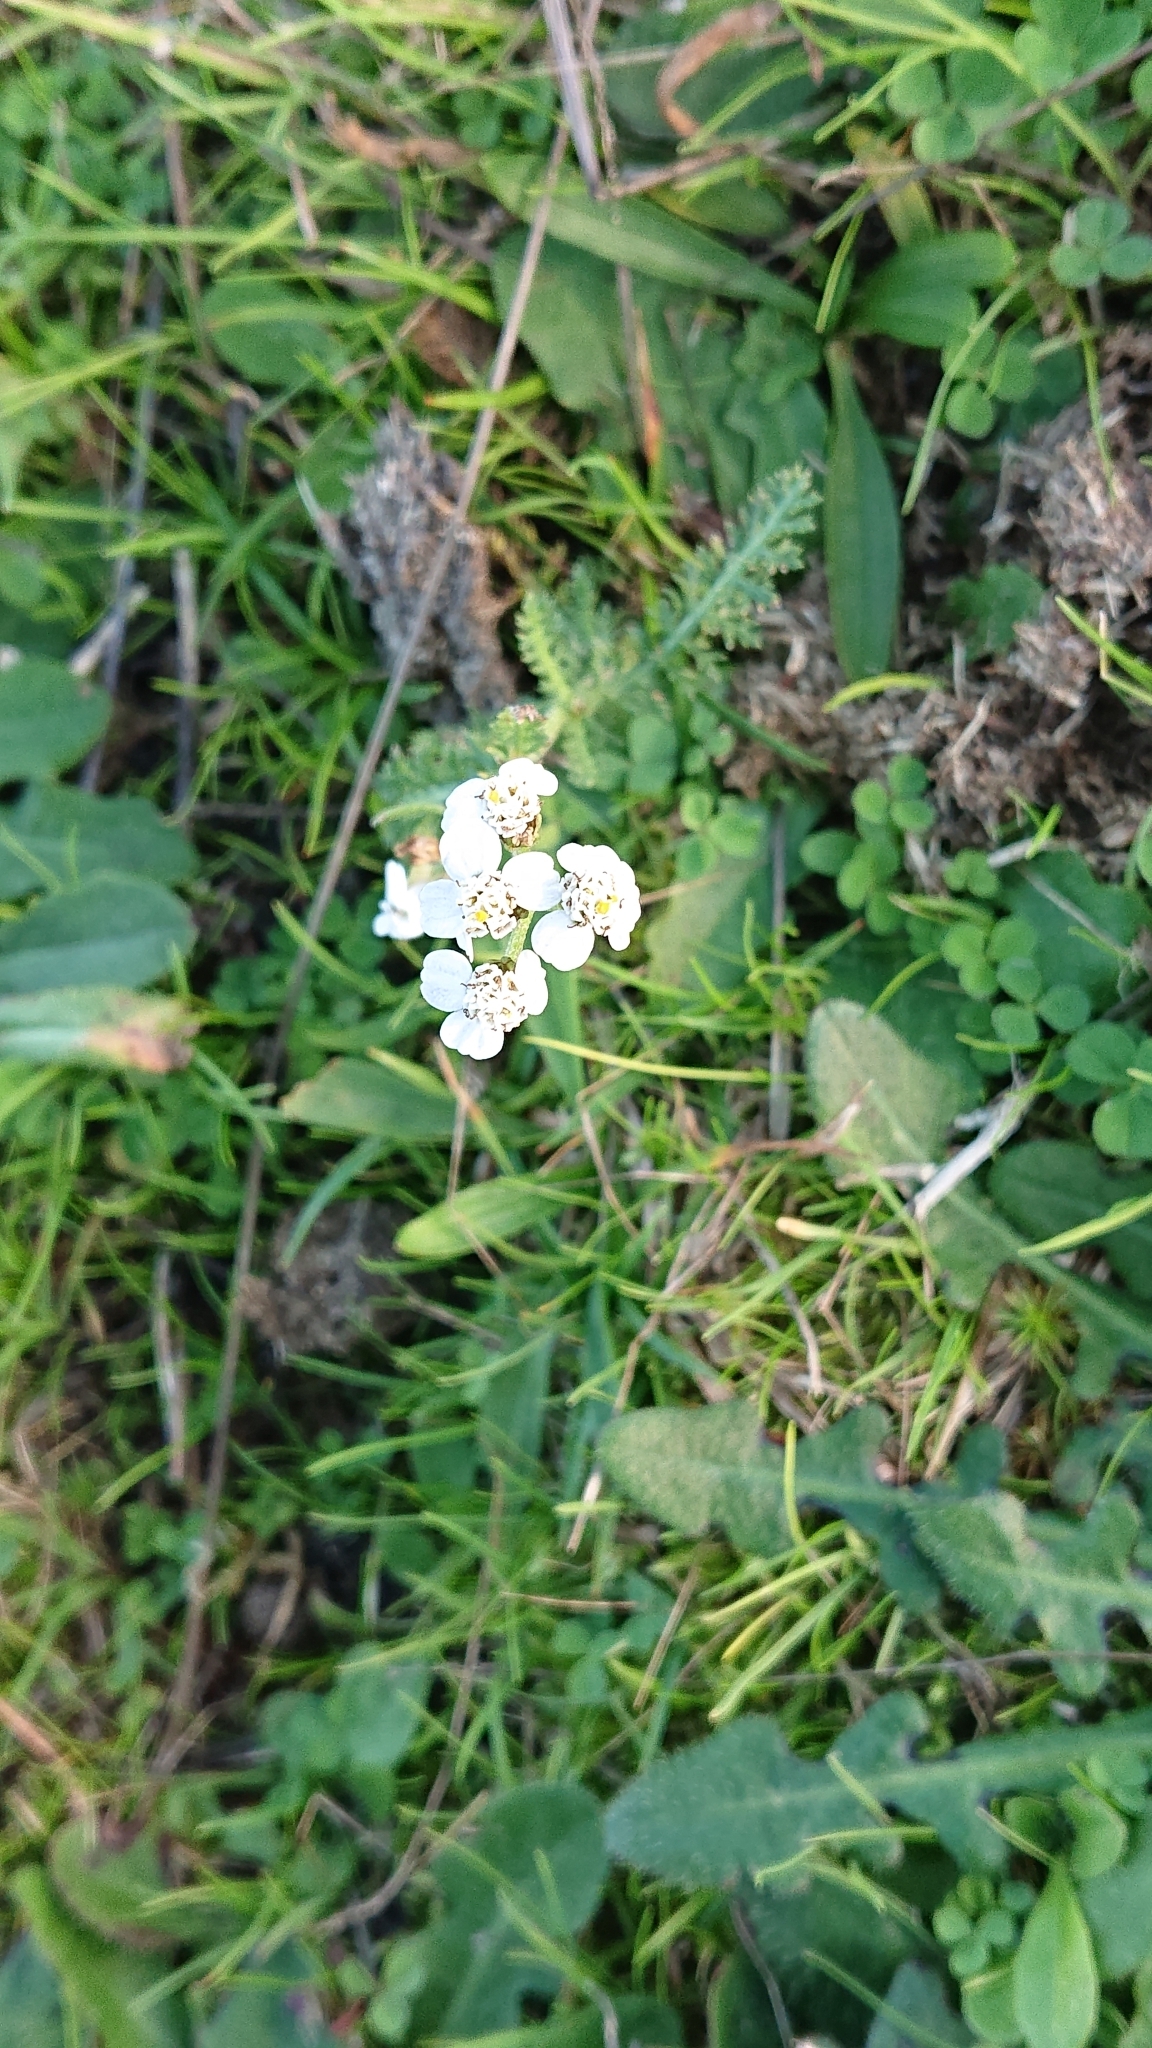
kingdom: Plantae
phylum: Tracheophyta
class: Magnoliopsida
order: Asterales
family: Asteraceae
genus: Achillea
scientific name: Achillea millefolium
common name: Yarrow
